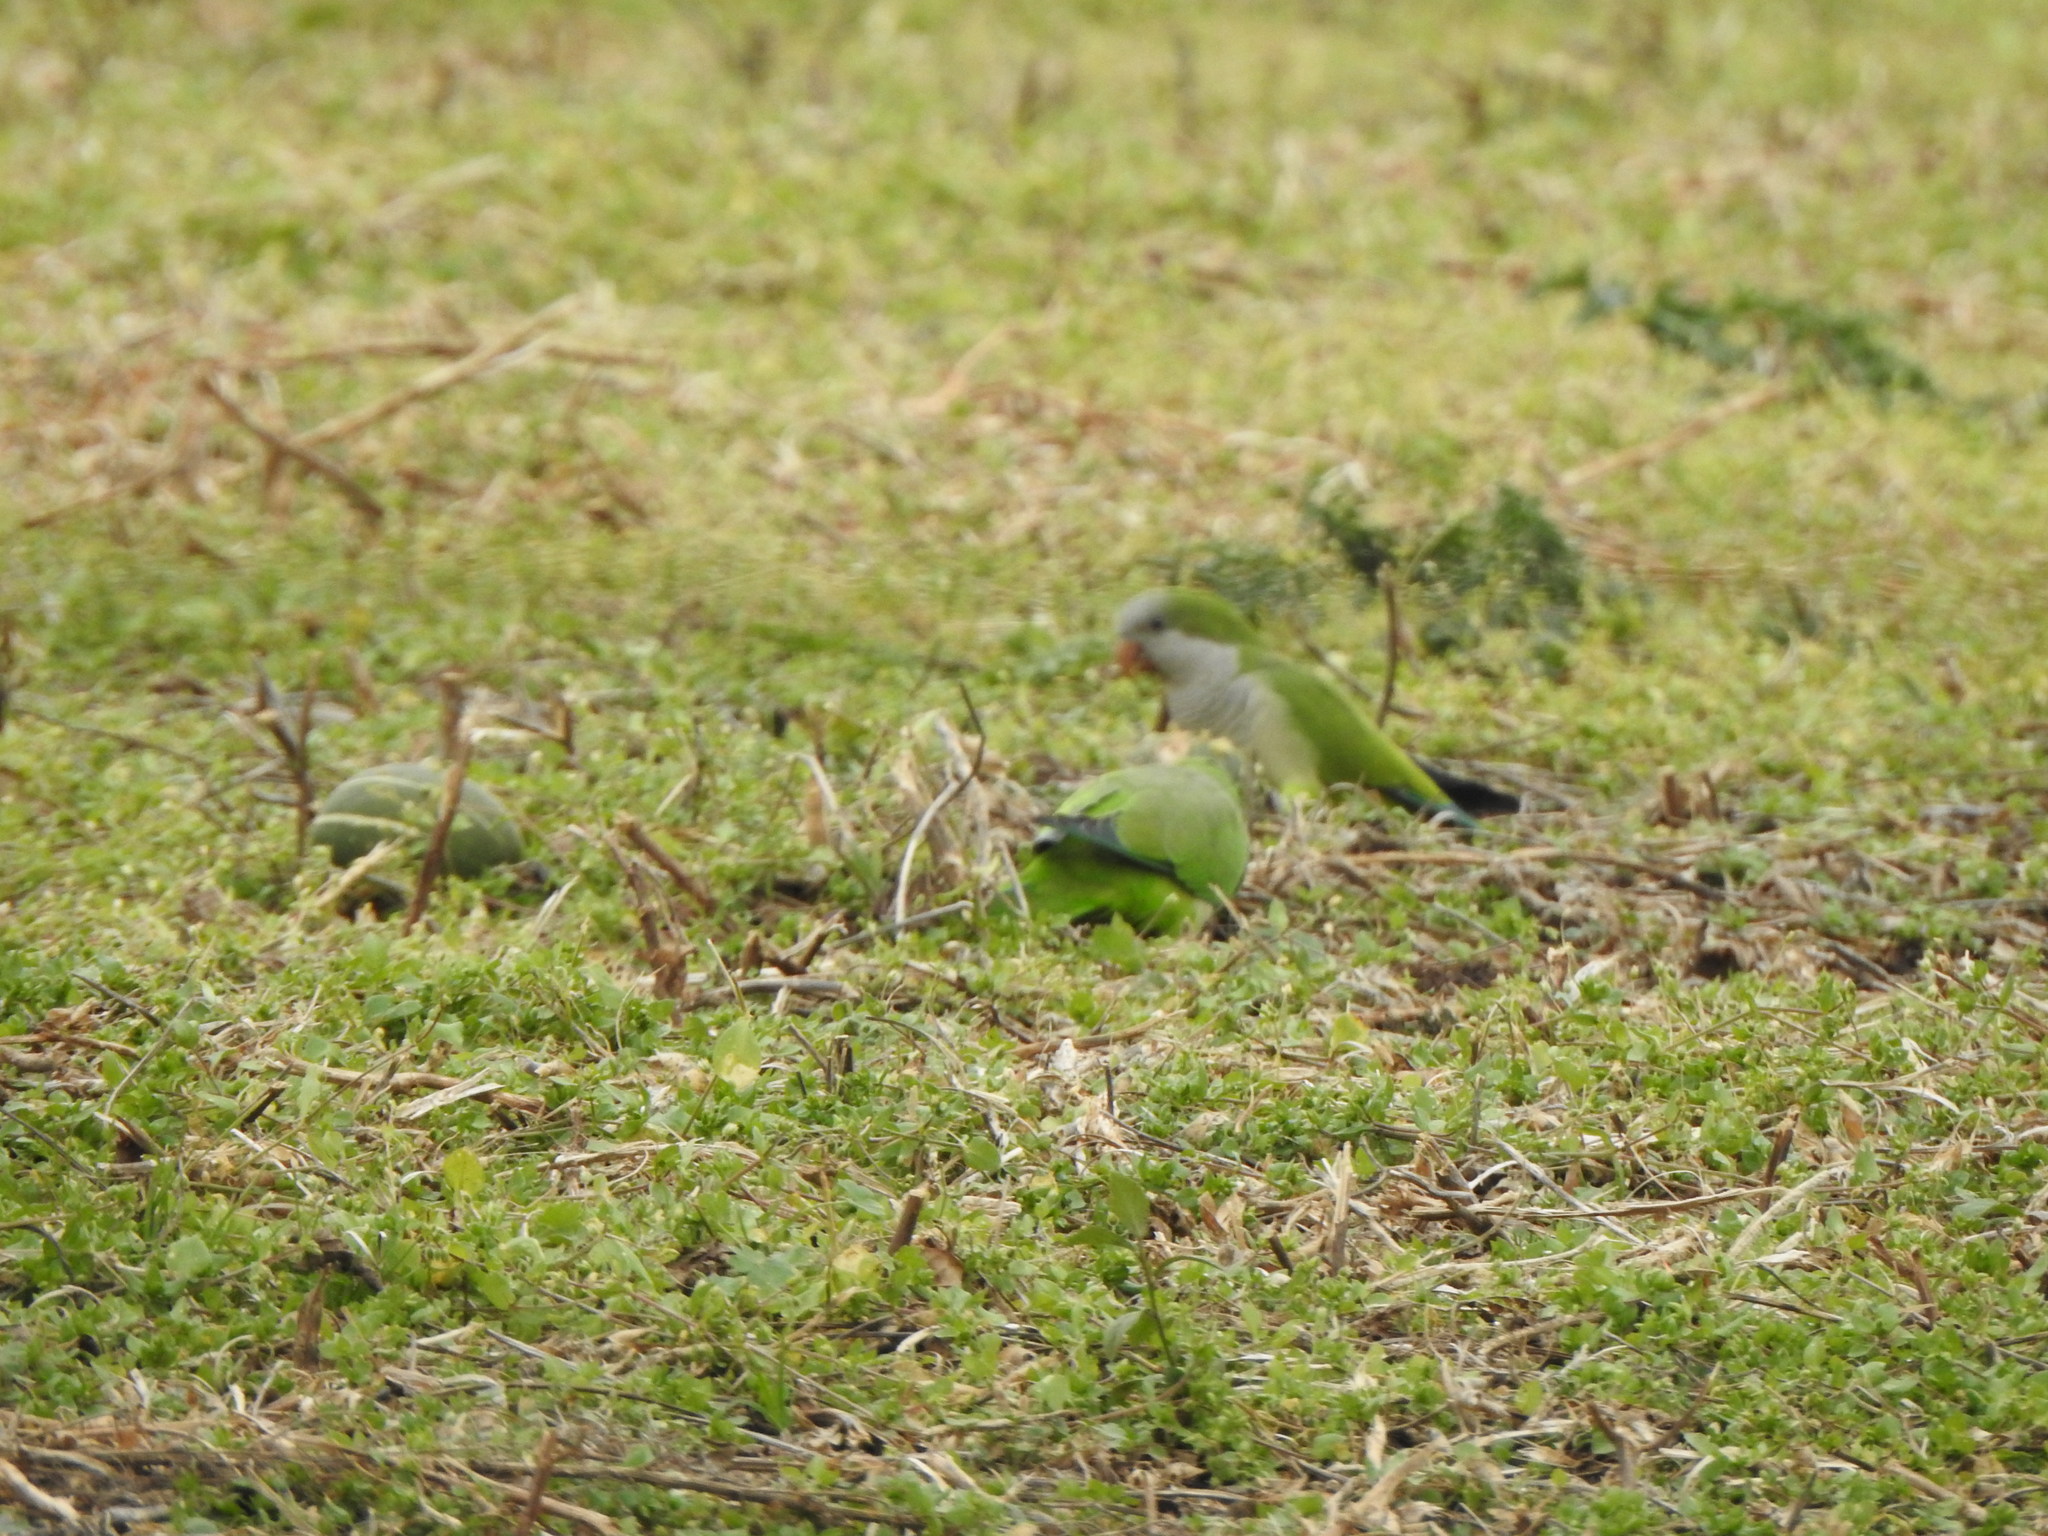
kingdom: Animalia
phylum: Chordata
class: Aves
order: Psittaciformes
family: Psittacidae
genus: Myiopsitta
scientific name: Myiopsitta monachus
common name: Monk parakeet
